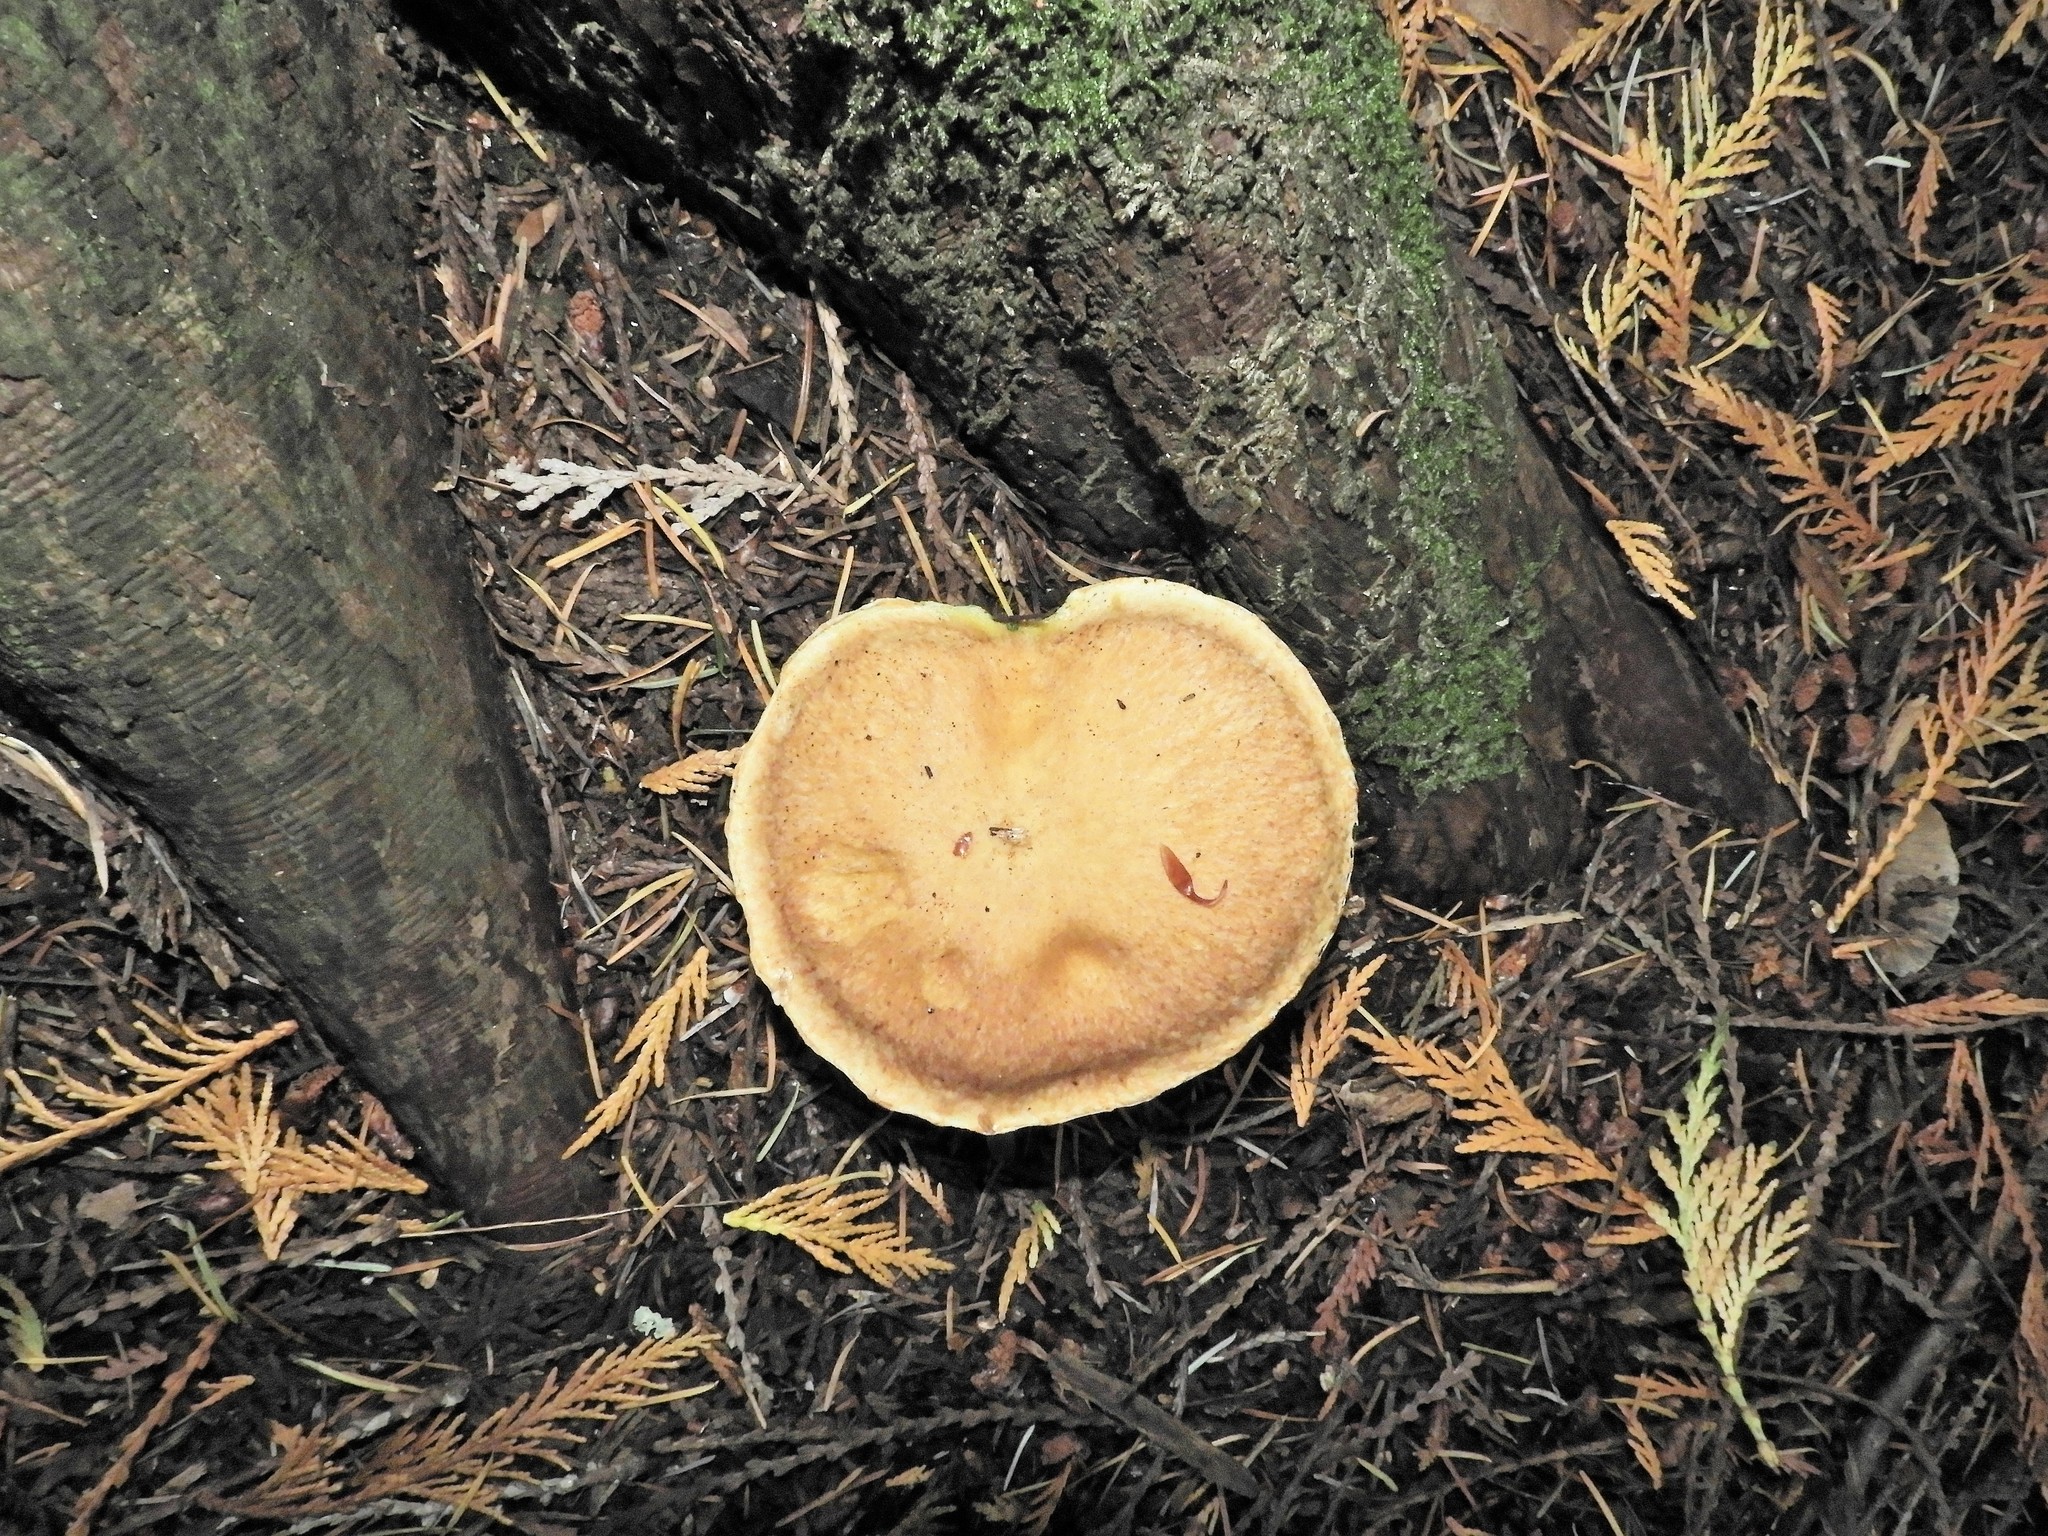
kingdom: Fungi
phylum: Basidiomycota
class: Agaricomycetes
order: Boletales
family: Suillaceae
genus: Suillus
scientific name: Suillus caerulescens
